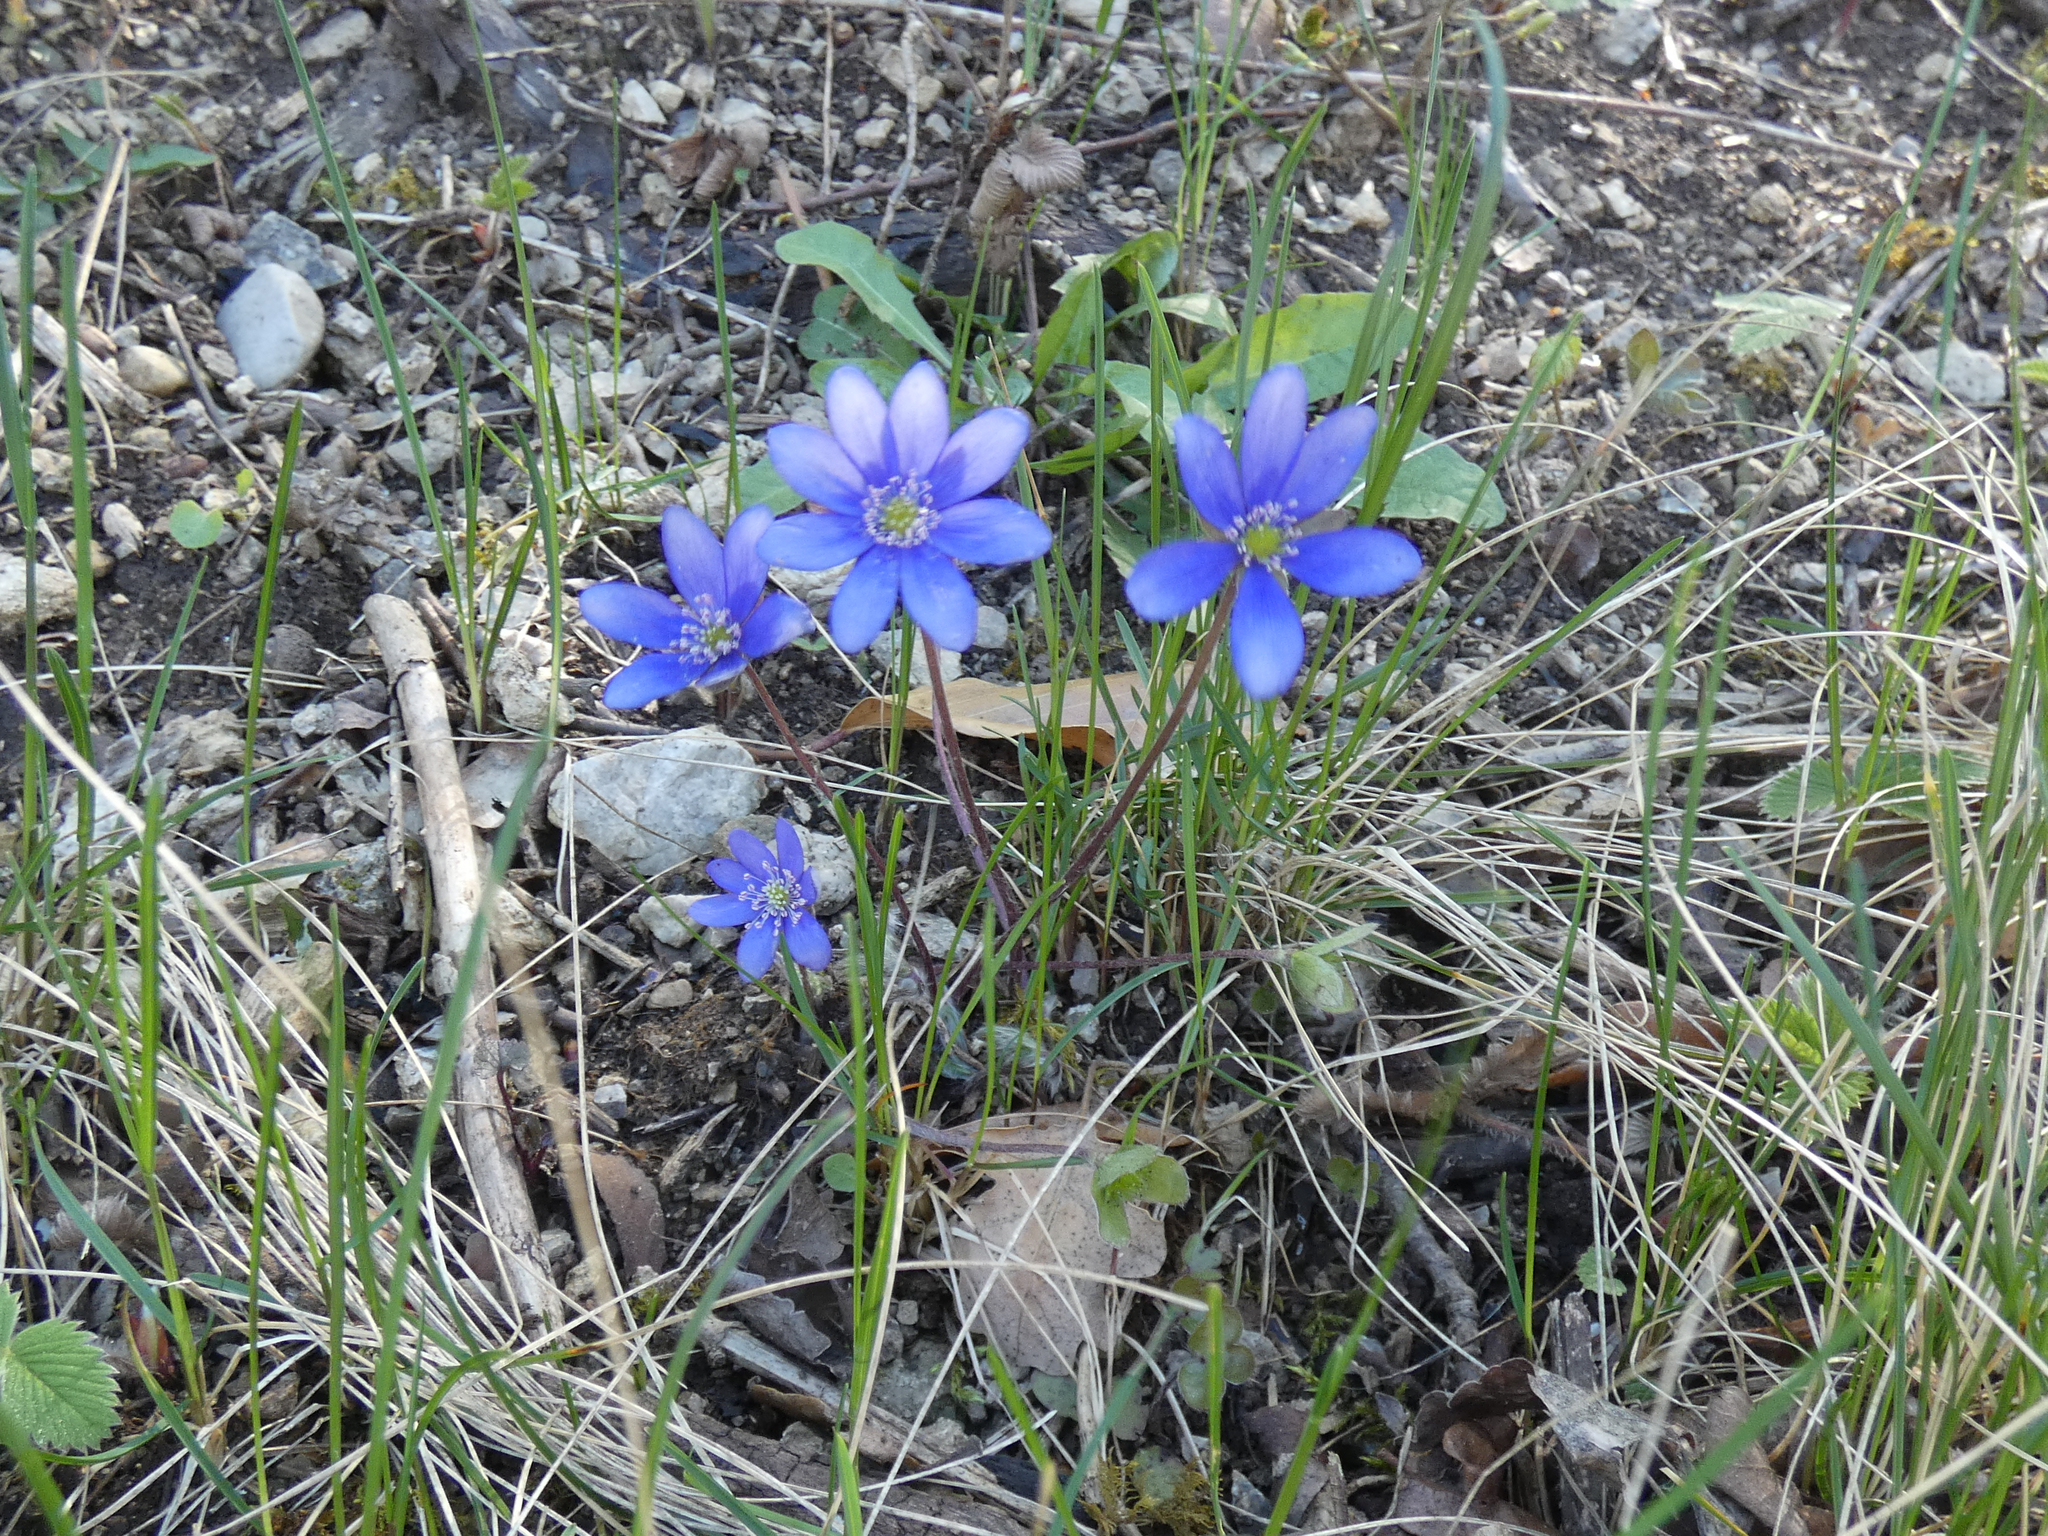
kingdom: Plantae
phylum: Tracheophyta
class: Magnoliopsida
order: Ranunculales
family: Ranunculaceae
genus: Hepatica
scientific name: Hepatica nobilis
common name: Liverleaf
